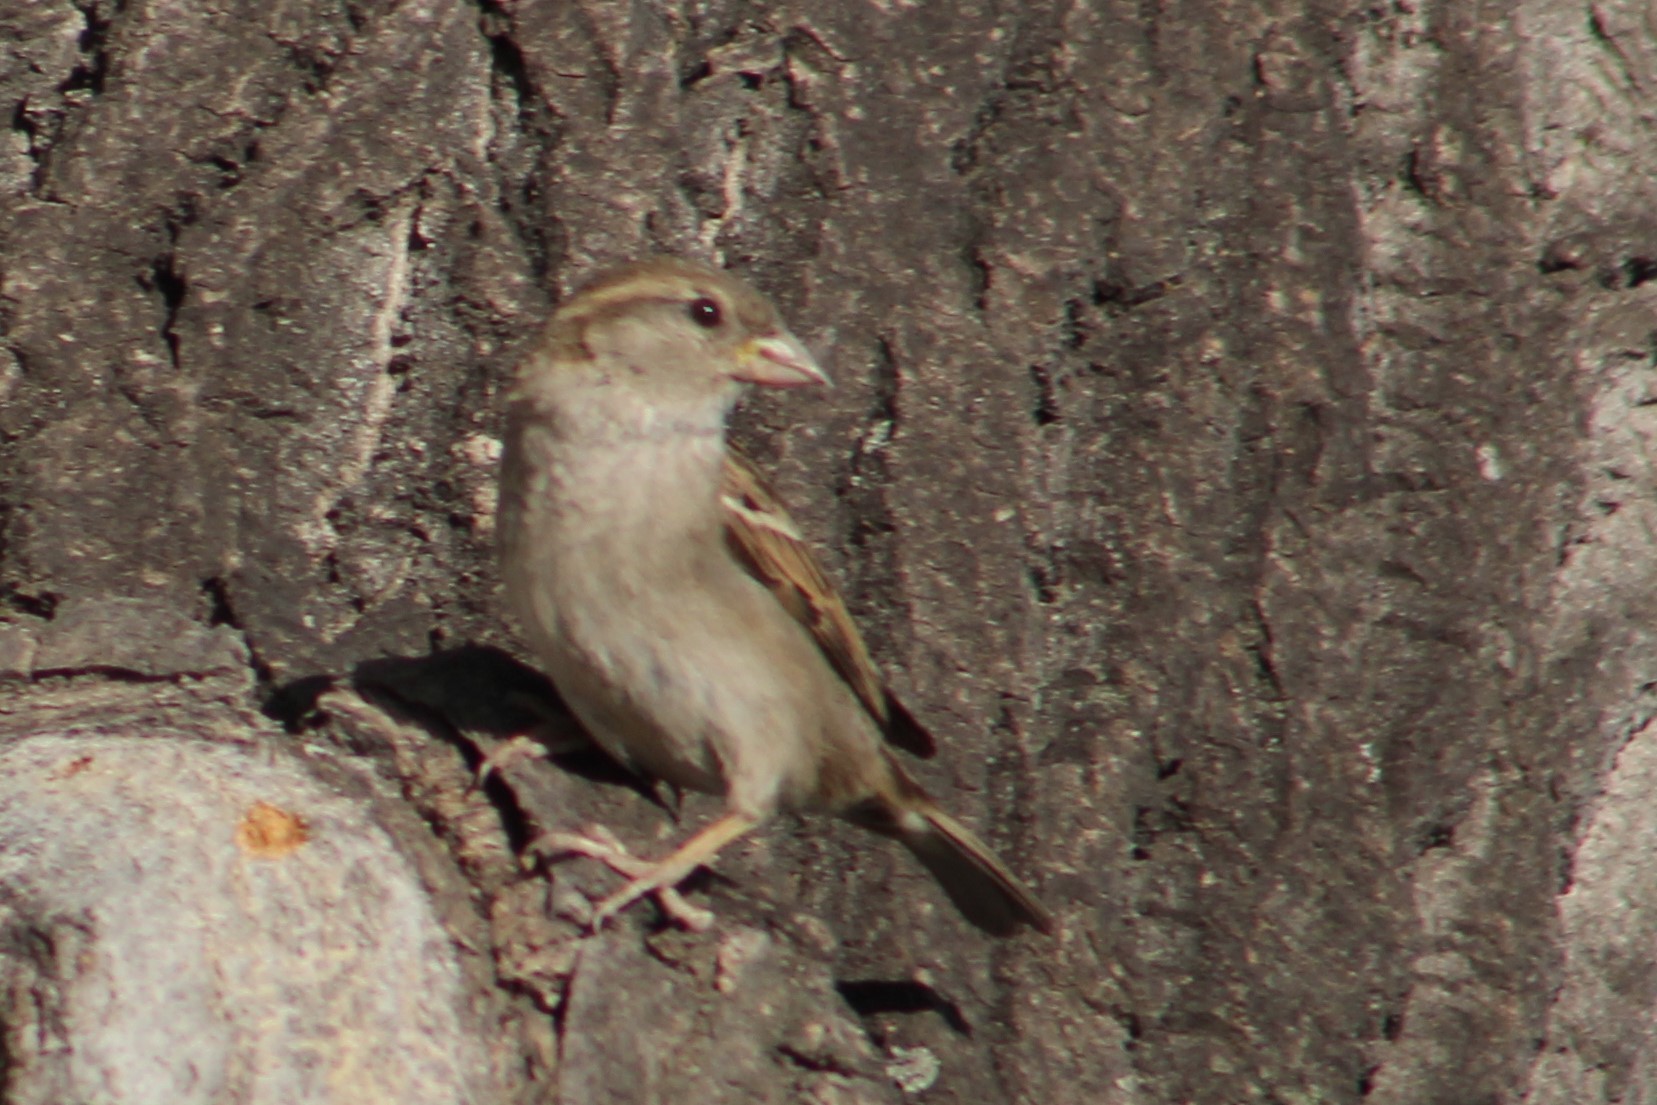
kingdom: Animalia
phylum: Chordata
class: Aves
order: Passeriformes
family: Passeridae
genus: Passer
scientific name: Passer domesticus
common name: House sparrow
